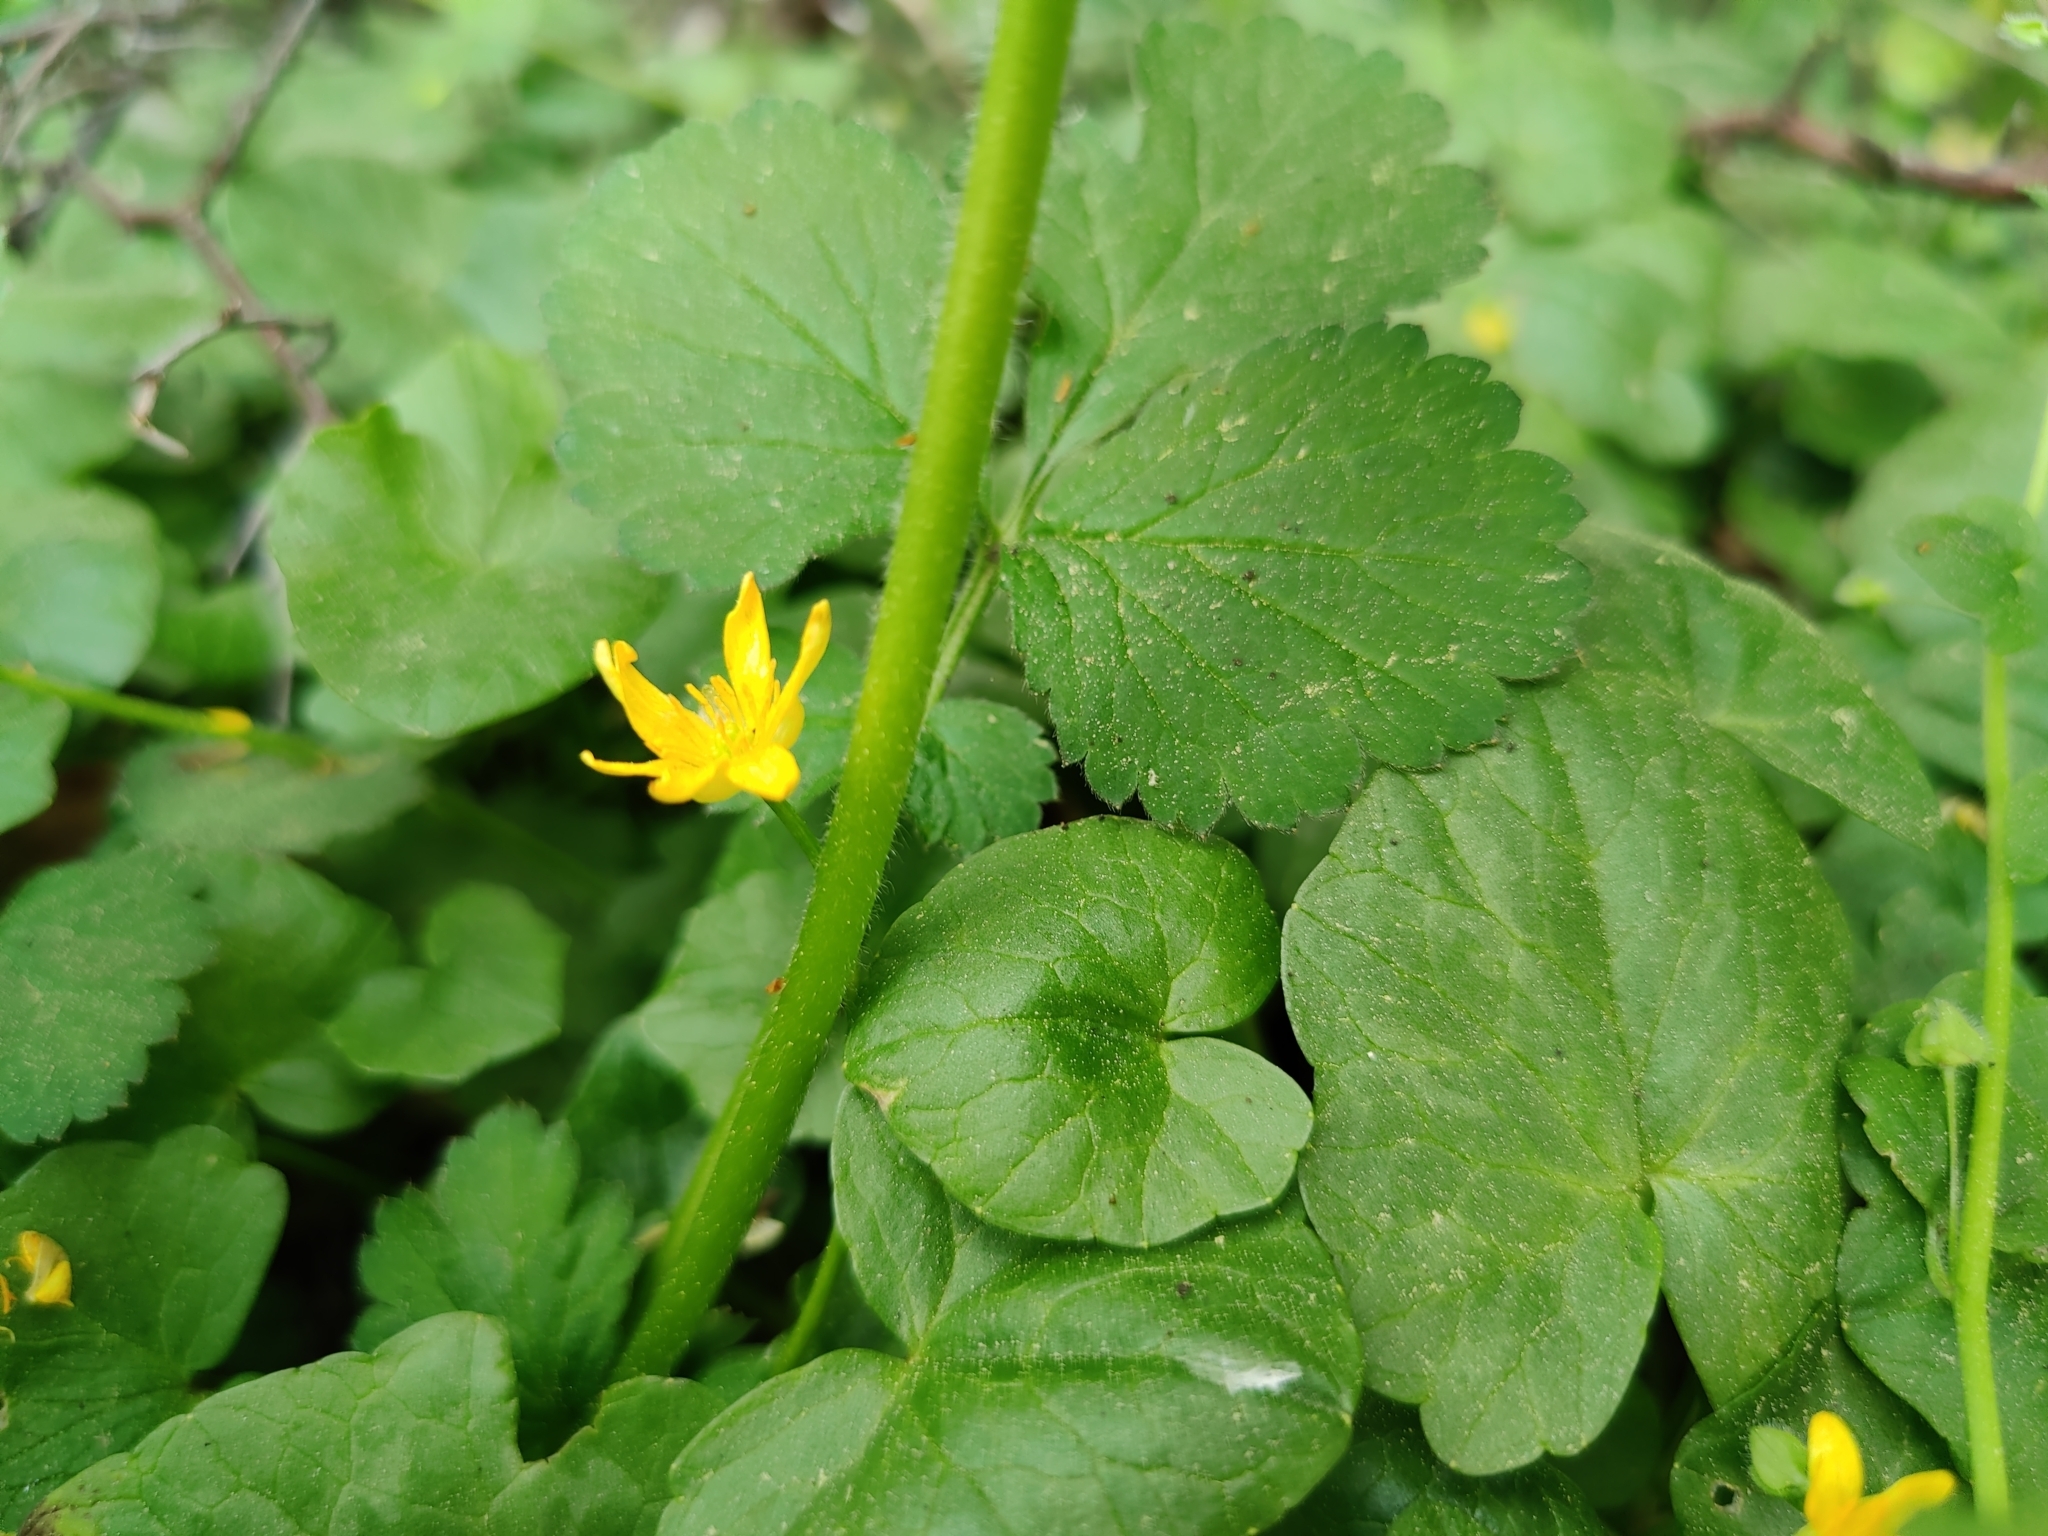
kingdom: Plantae
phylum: Tracheophyta
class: Magnoliopsida
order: Ranunculales
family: Ranunculaceae
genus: Ficaria
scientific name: Ficaria verna
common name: Lesser celandine
